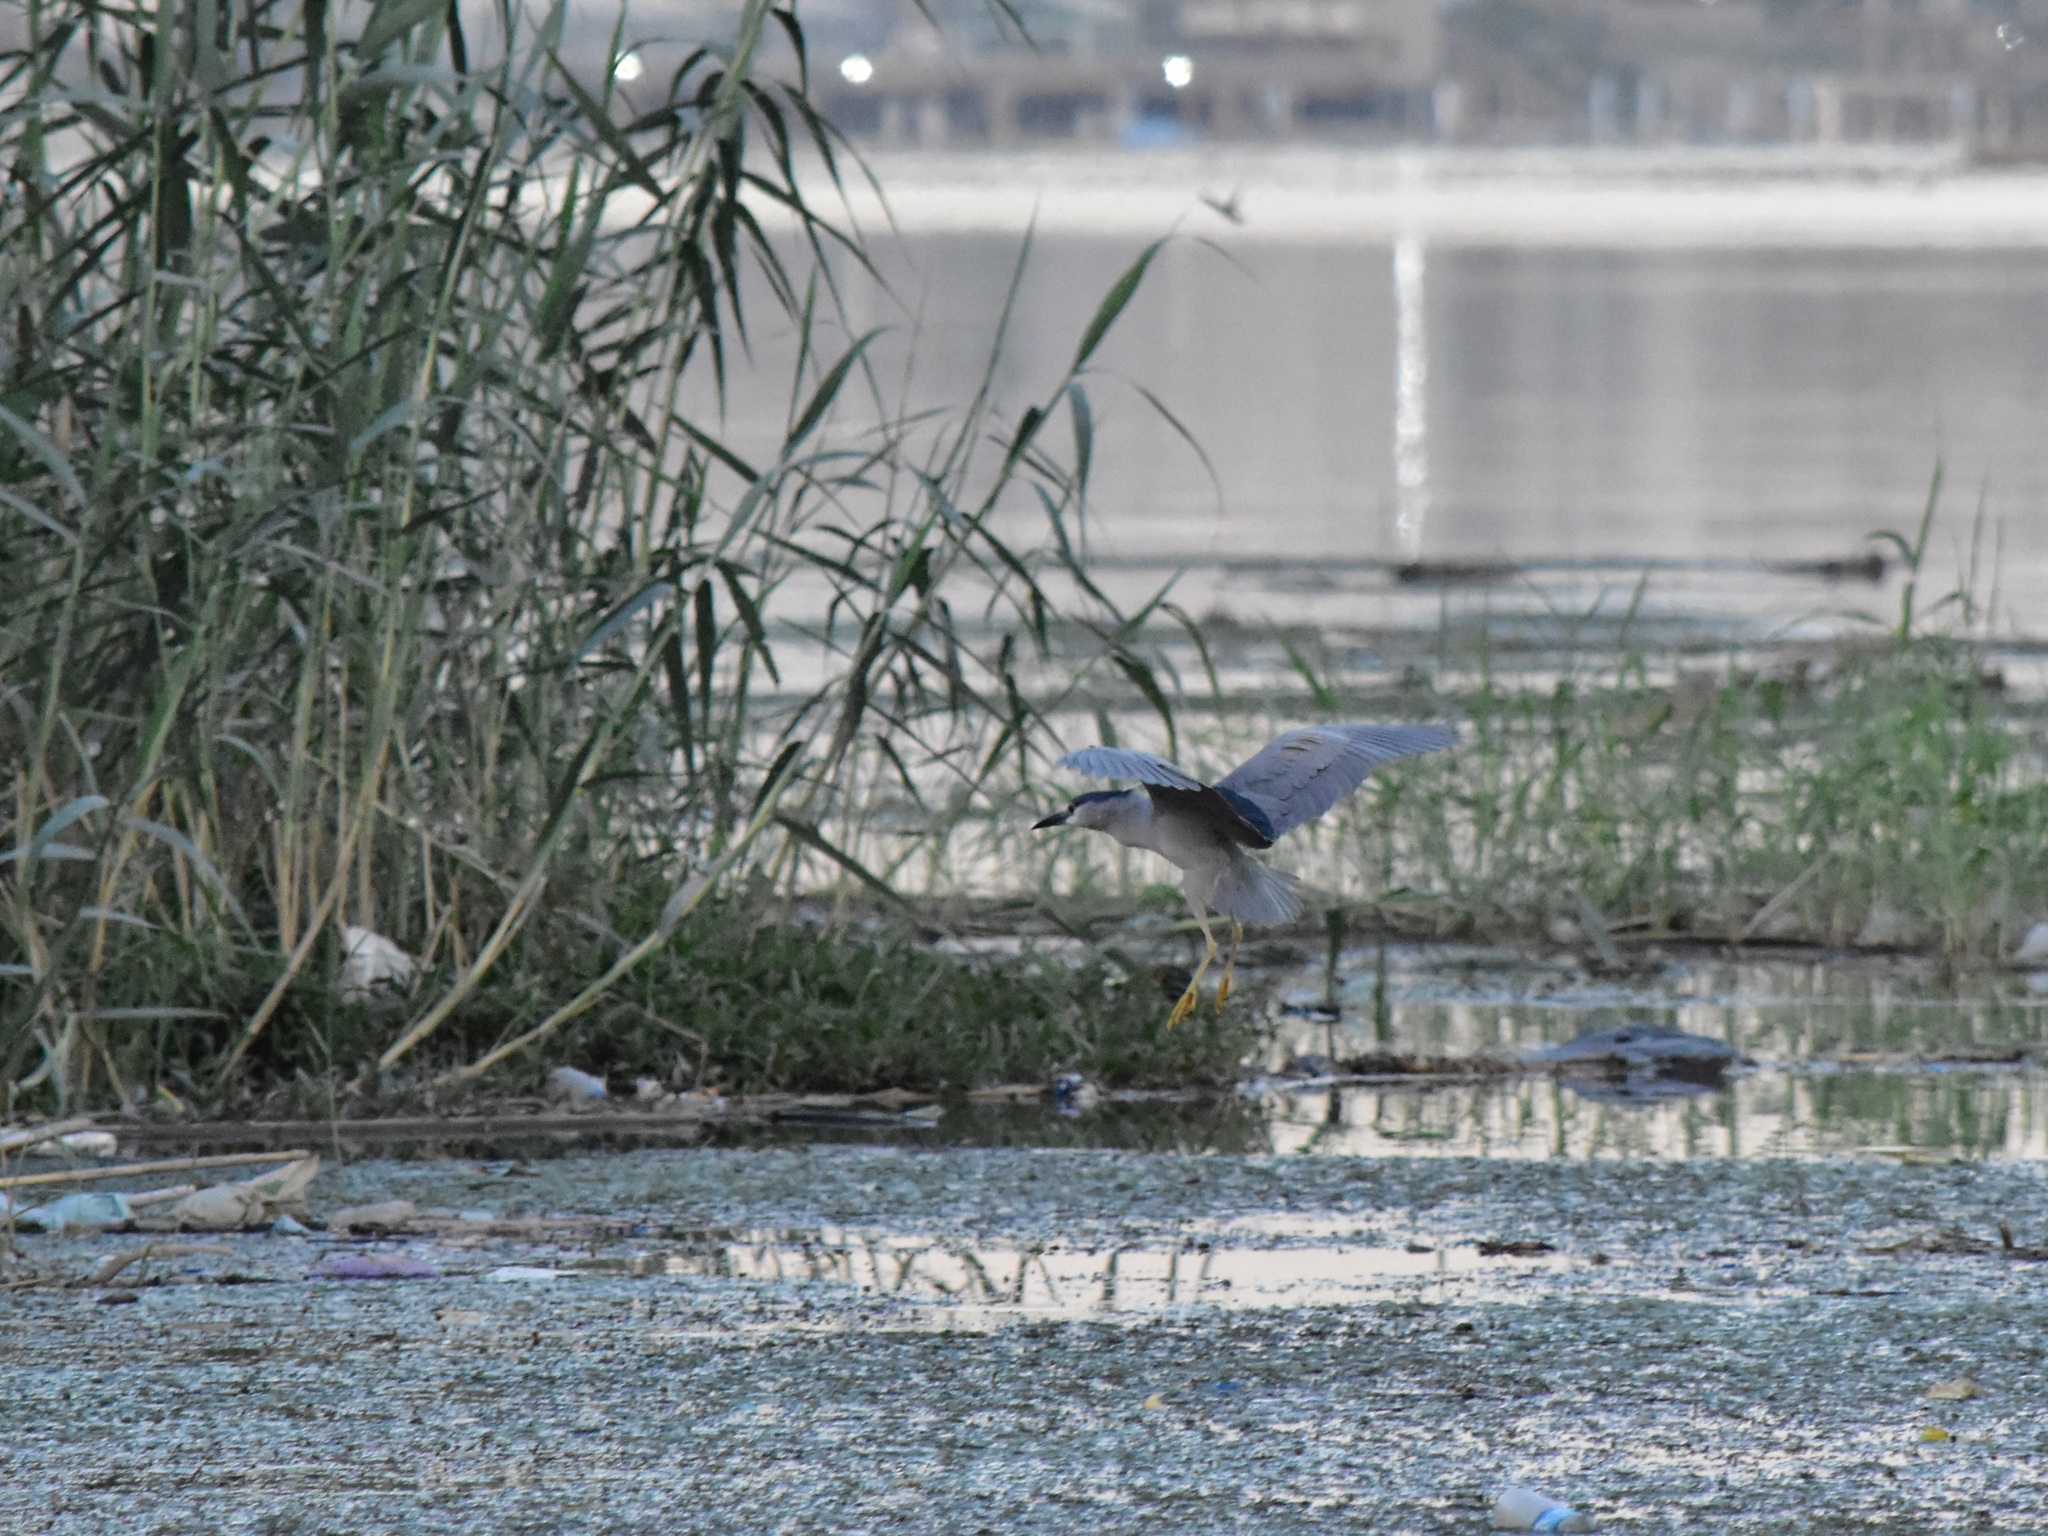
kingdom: Animalia
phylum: Chordata
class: Aves
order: Pelecaniformes
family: Ardeidae
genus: Nycticorax
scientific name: Nycticorax nycticorax
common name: Black-crowned night heron
